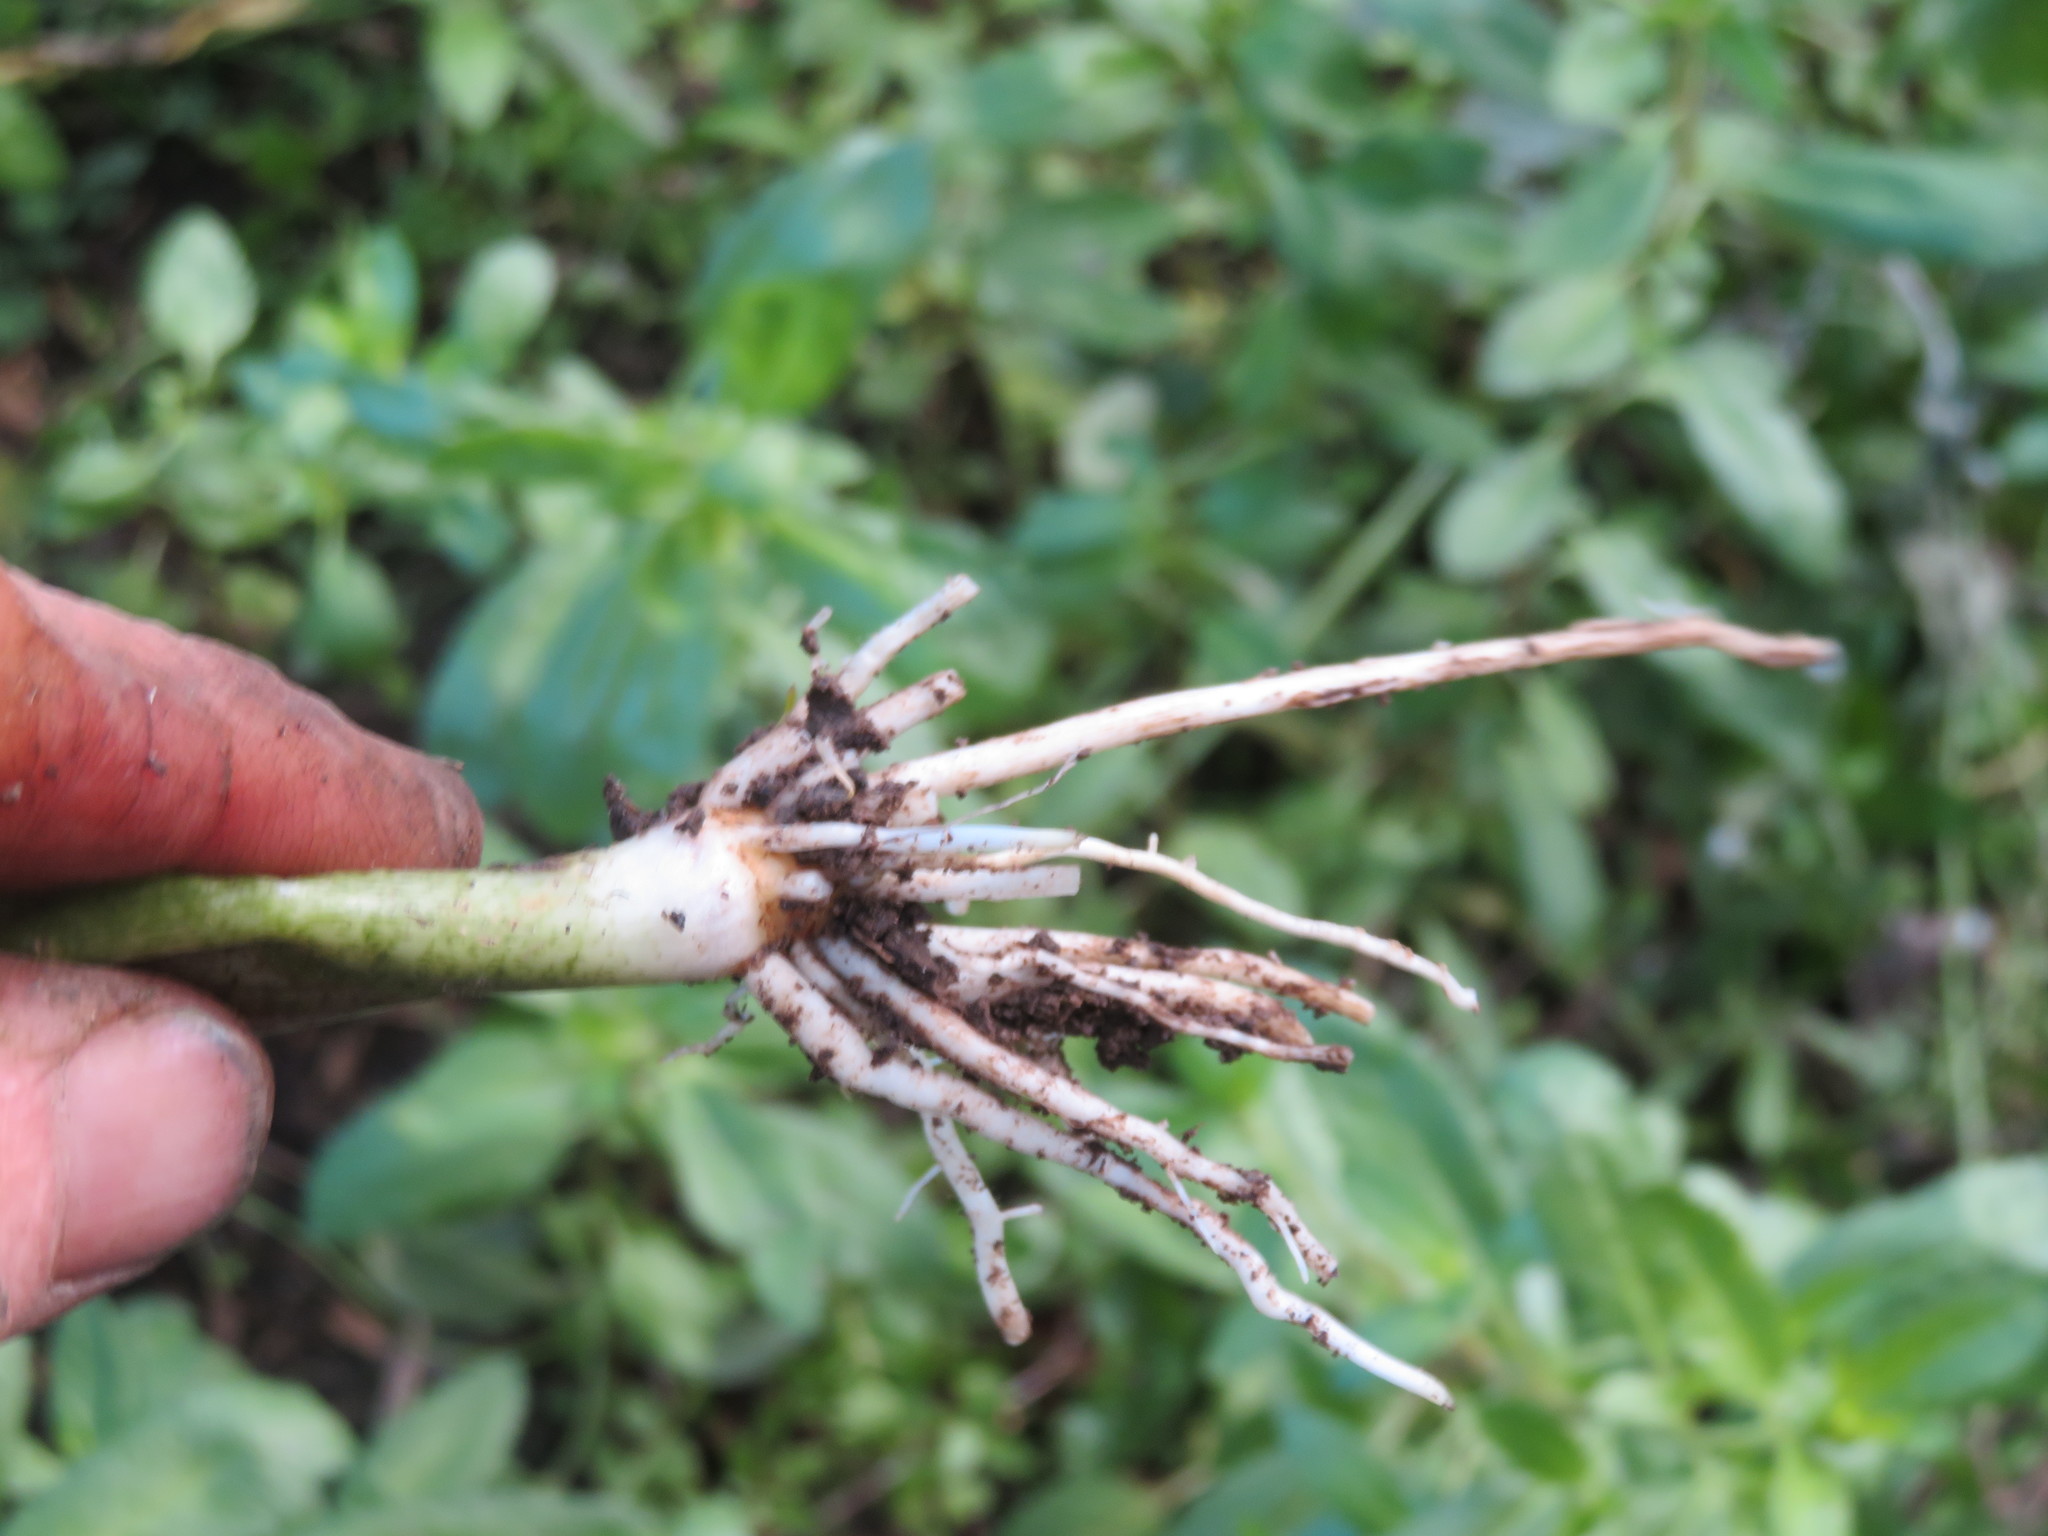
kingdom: Plantae
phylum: Tracheophyta
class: Liliopsida
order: Alismatales
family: Araceae
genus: Zantedeschia
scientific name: Zantedeschia aethiopica
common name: Altar-lily
